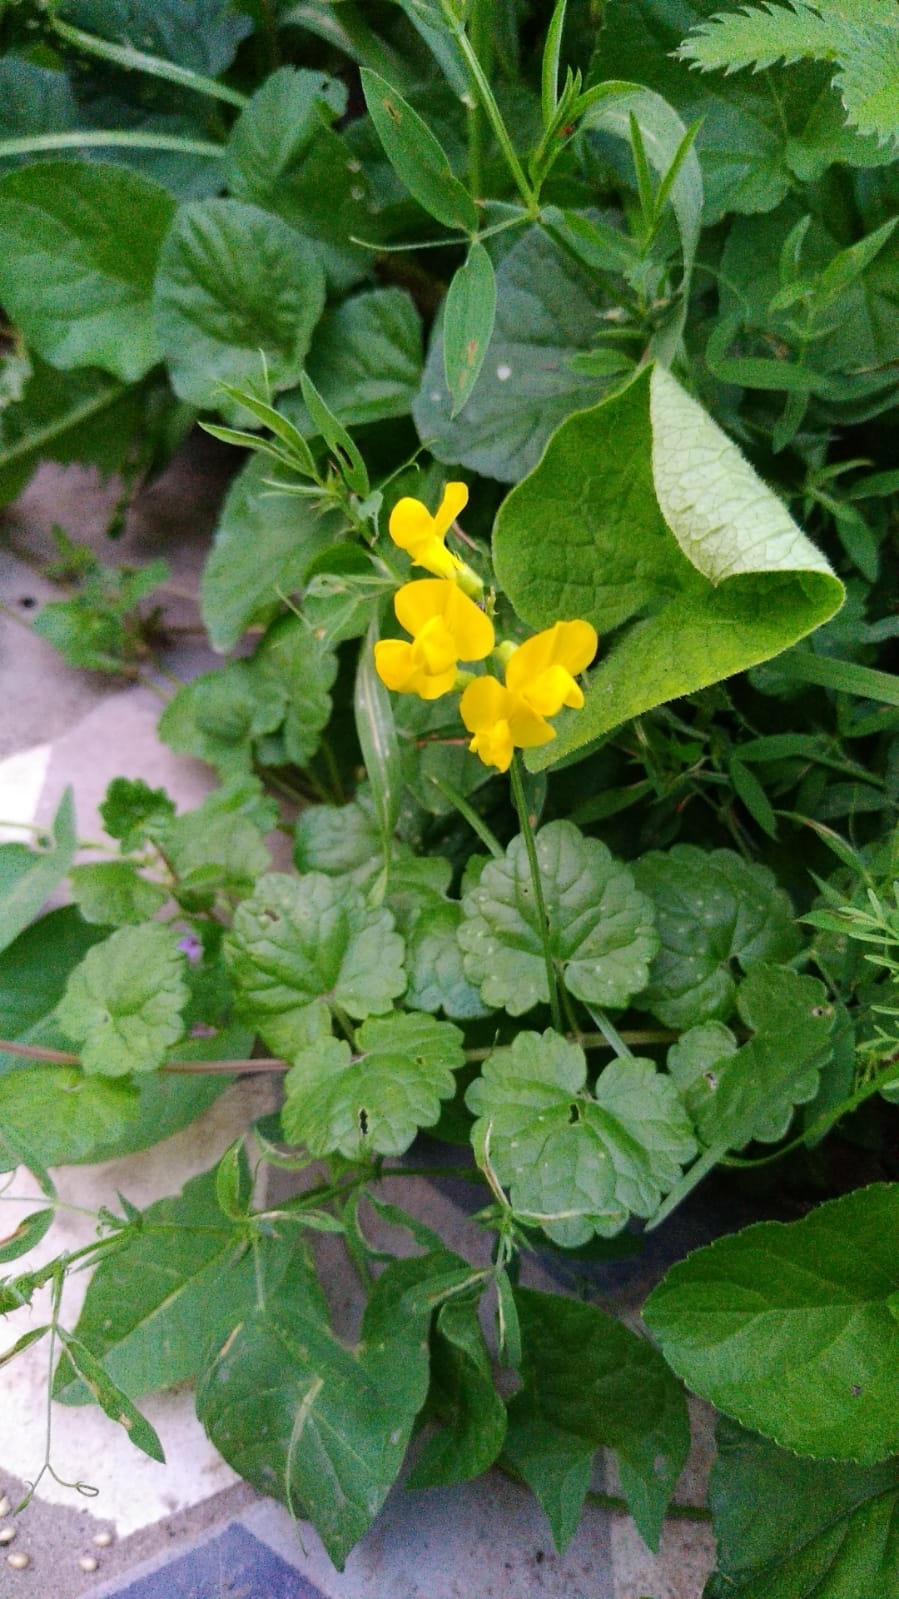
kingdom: Plantae
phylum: Tracheophyta
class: Magnoliopsida
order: Fabales
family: Fabaceae
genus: Lathyrus
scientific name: Lathyrus pratensis
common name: Meadow vetchling
